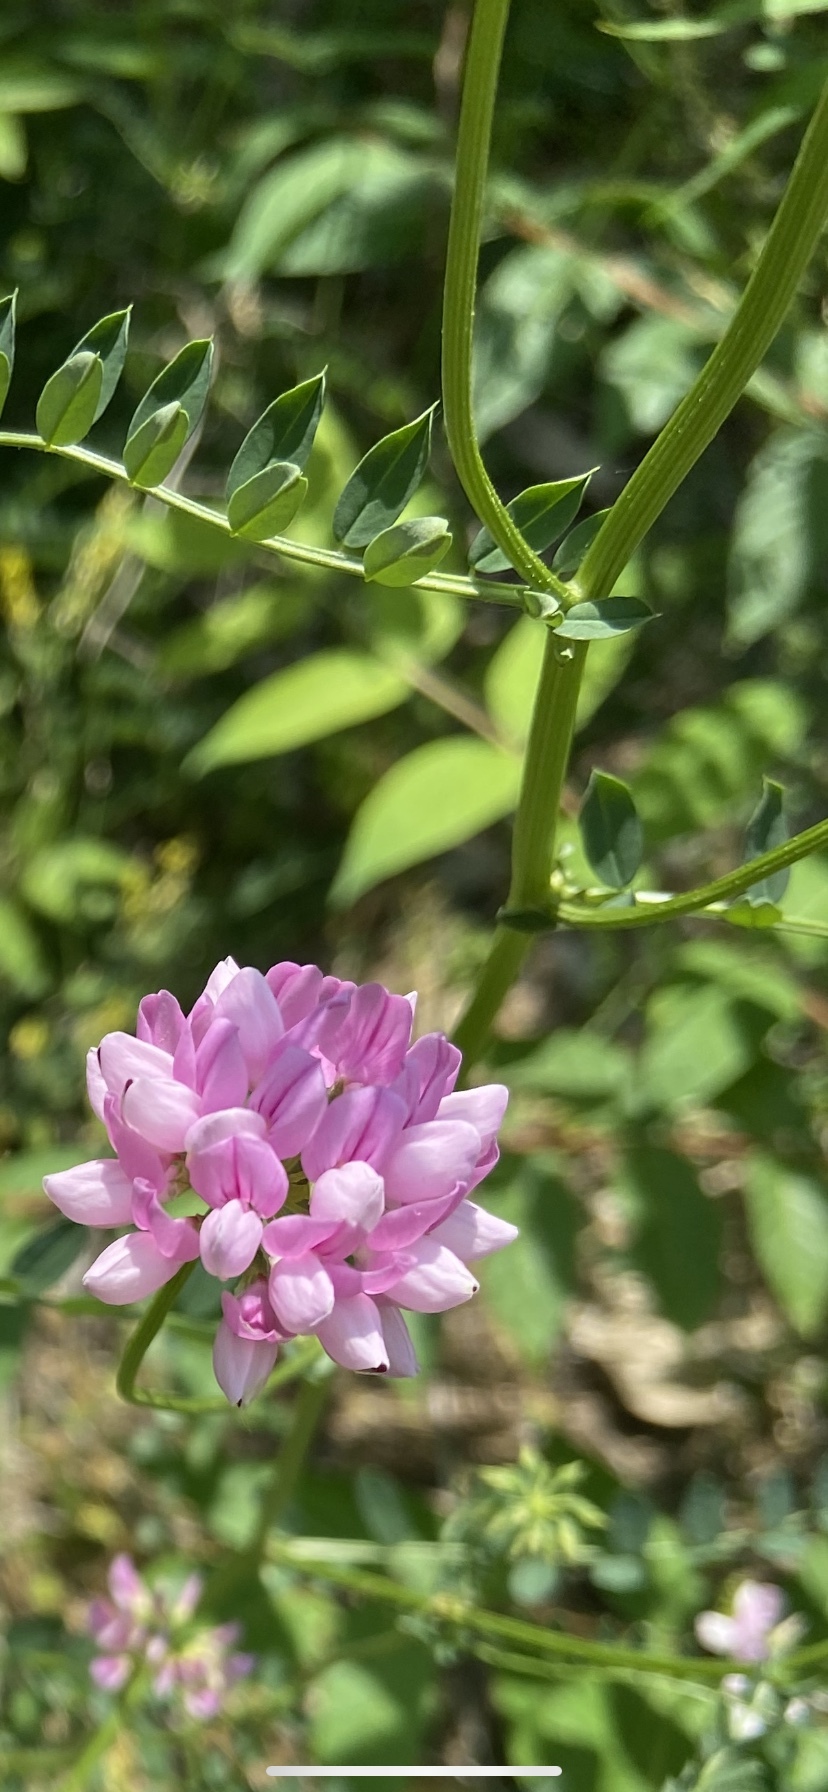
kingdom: Plantae
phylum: Tracheophyta
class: Magnoliopsida
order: Fabales
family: Fabaceae
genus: Coronilla
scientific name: Coronilla varia
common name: Crownvetch
